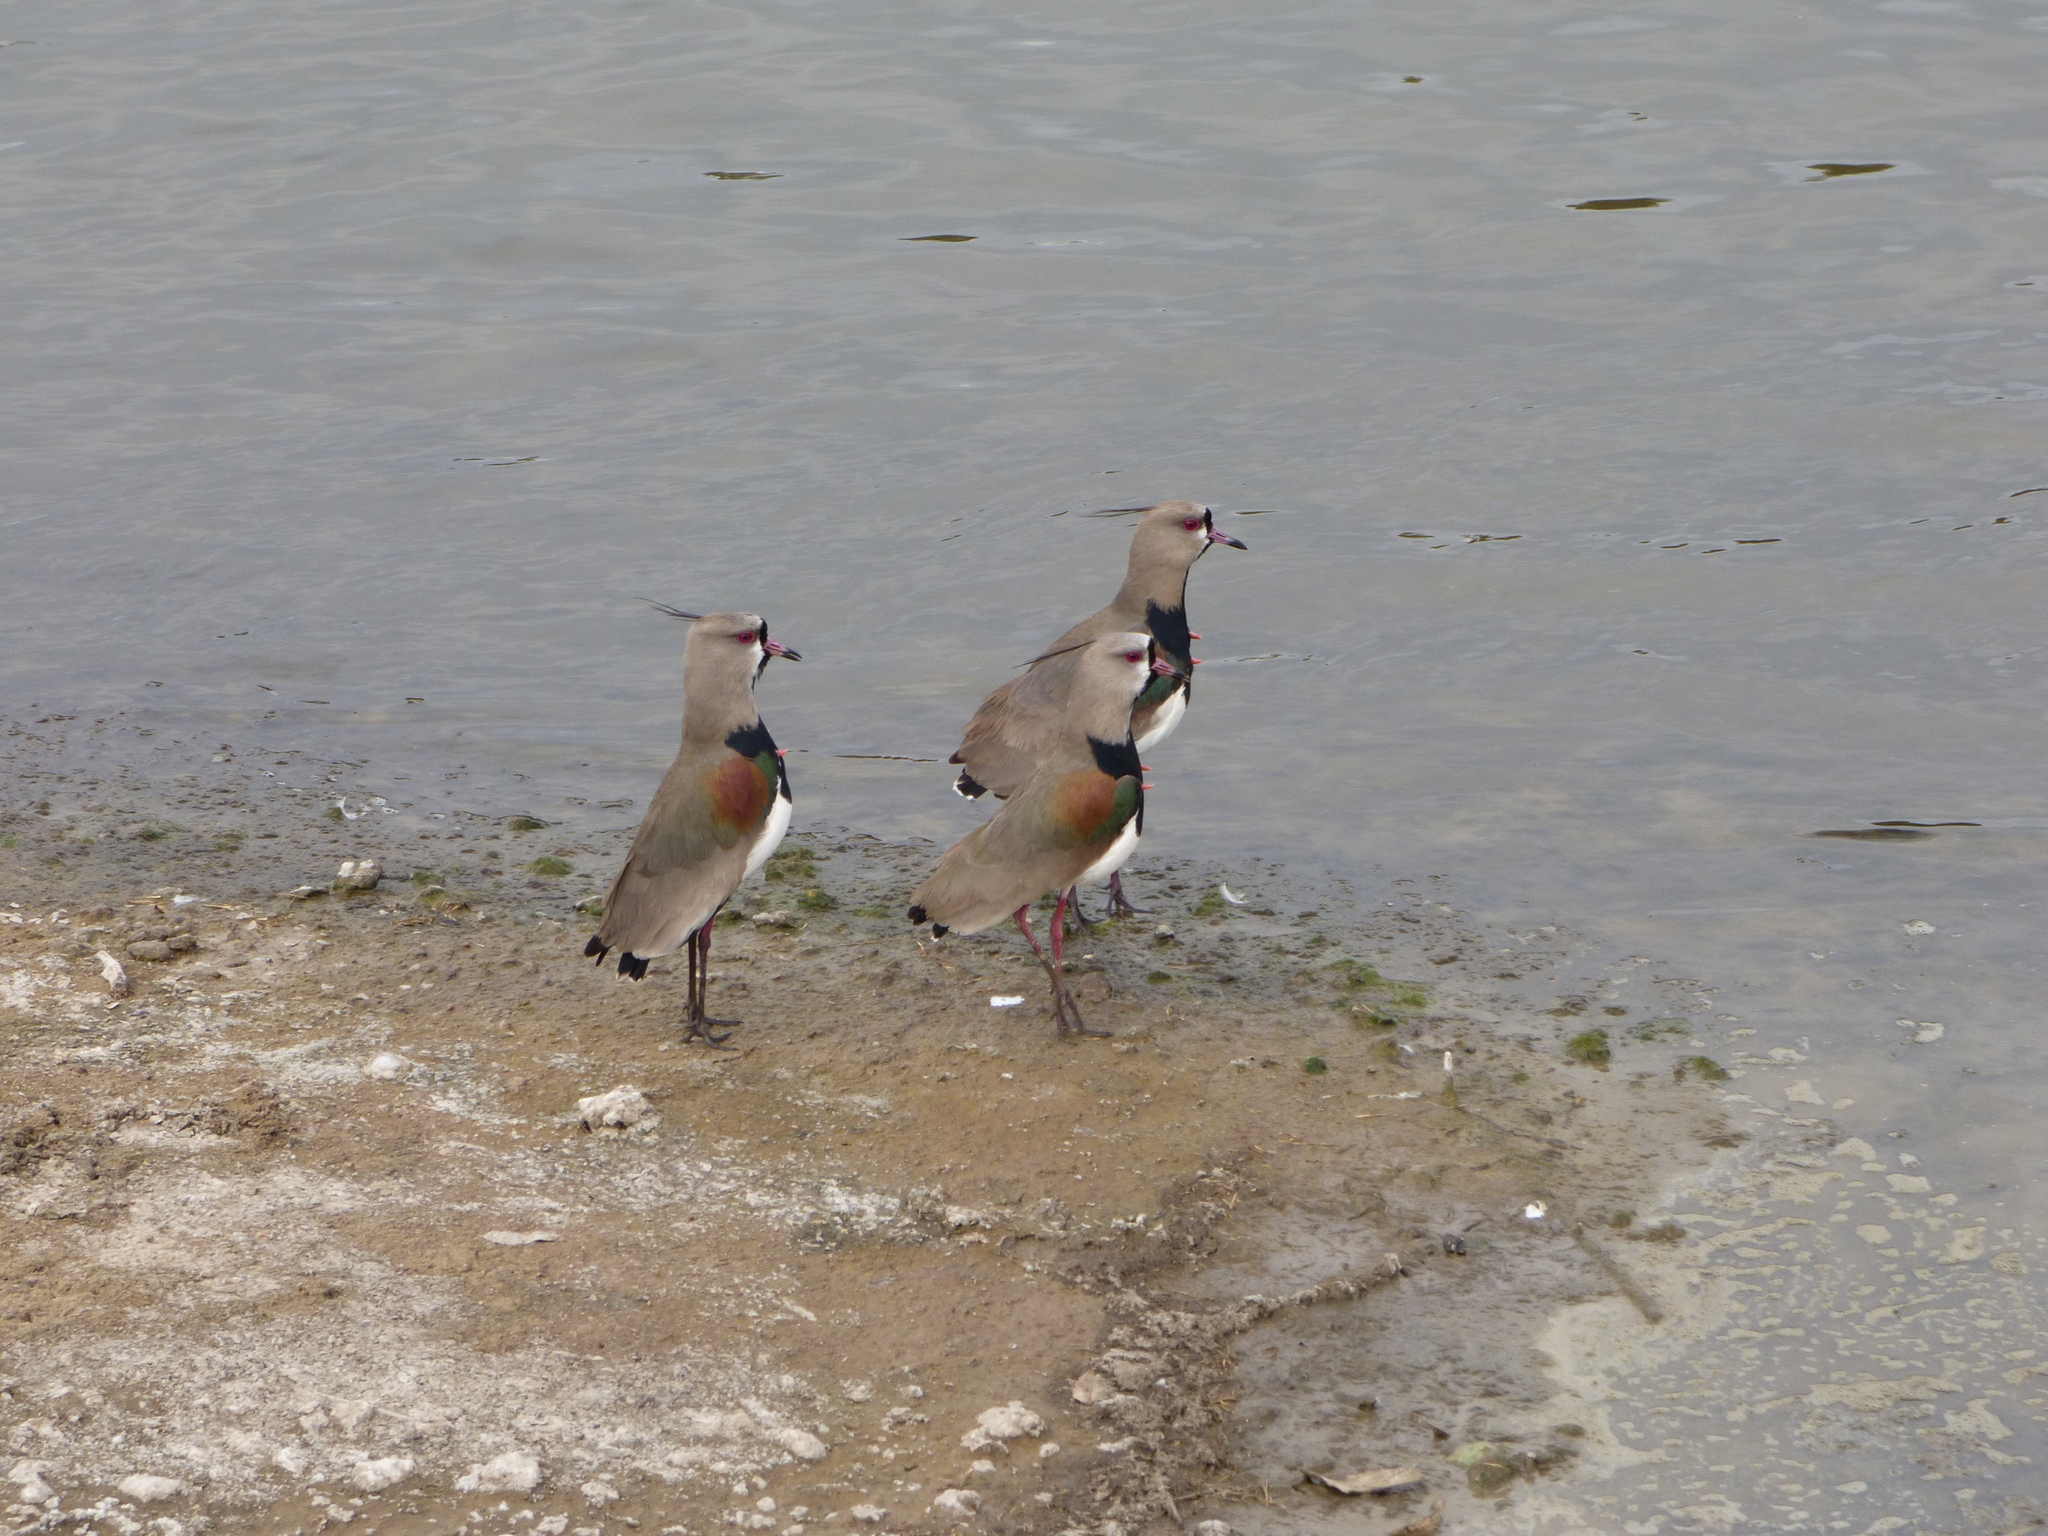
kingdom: Animalia
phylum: Chordata
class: Aves
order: Charadriiformes
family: Charadriidae
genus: Vanellus
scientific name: Vanellus chilensis
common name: Southern lapwing
